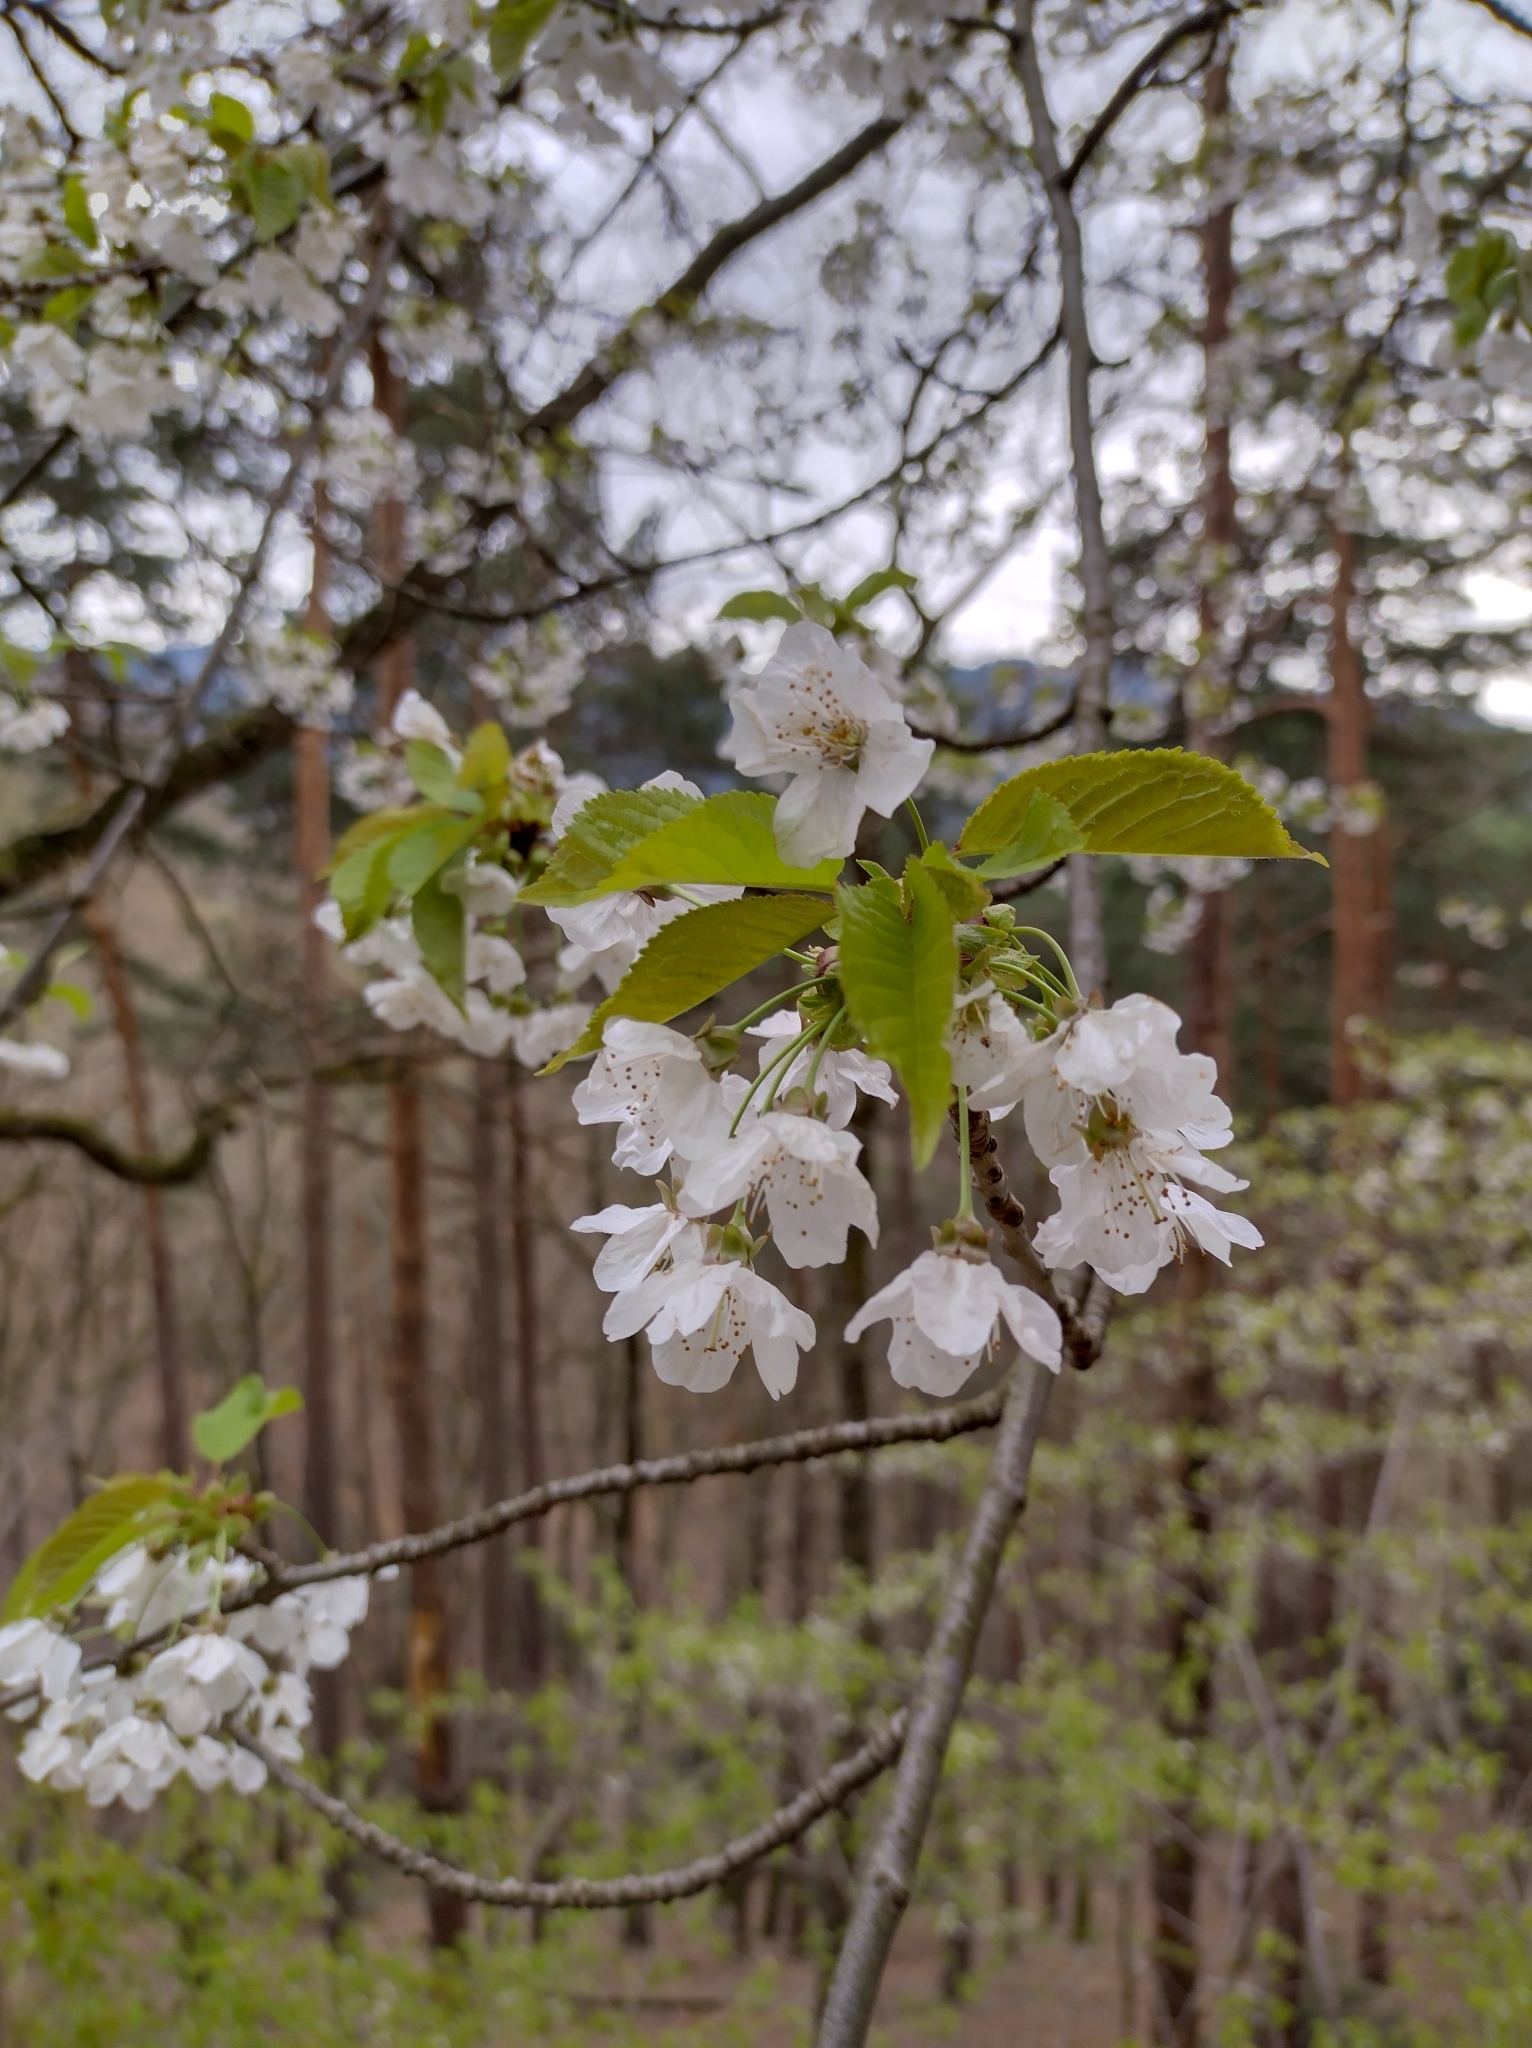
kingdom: Plantae
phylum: Tracheophyta
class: Magnoliopsida
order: Rosales
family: Rosaceae
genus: Prunus
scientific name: Prunus avium
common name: Sweet cherry
